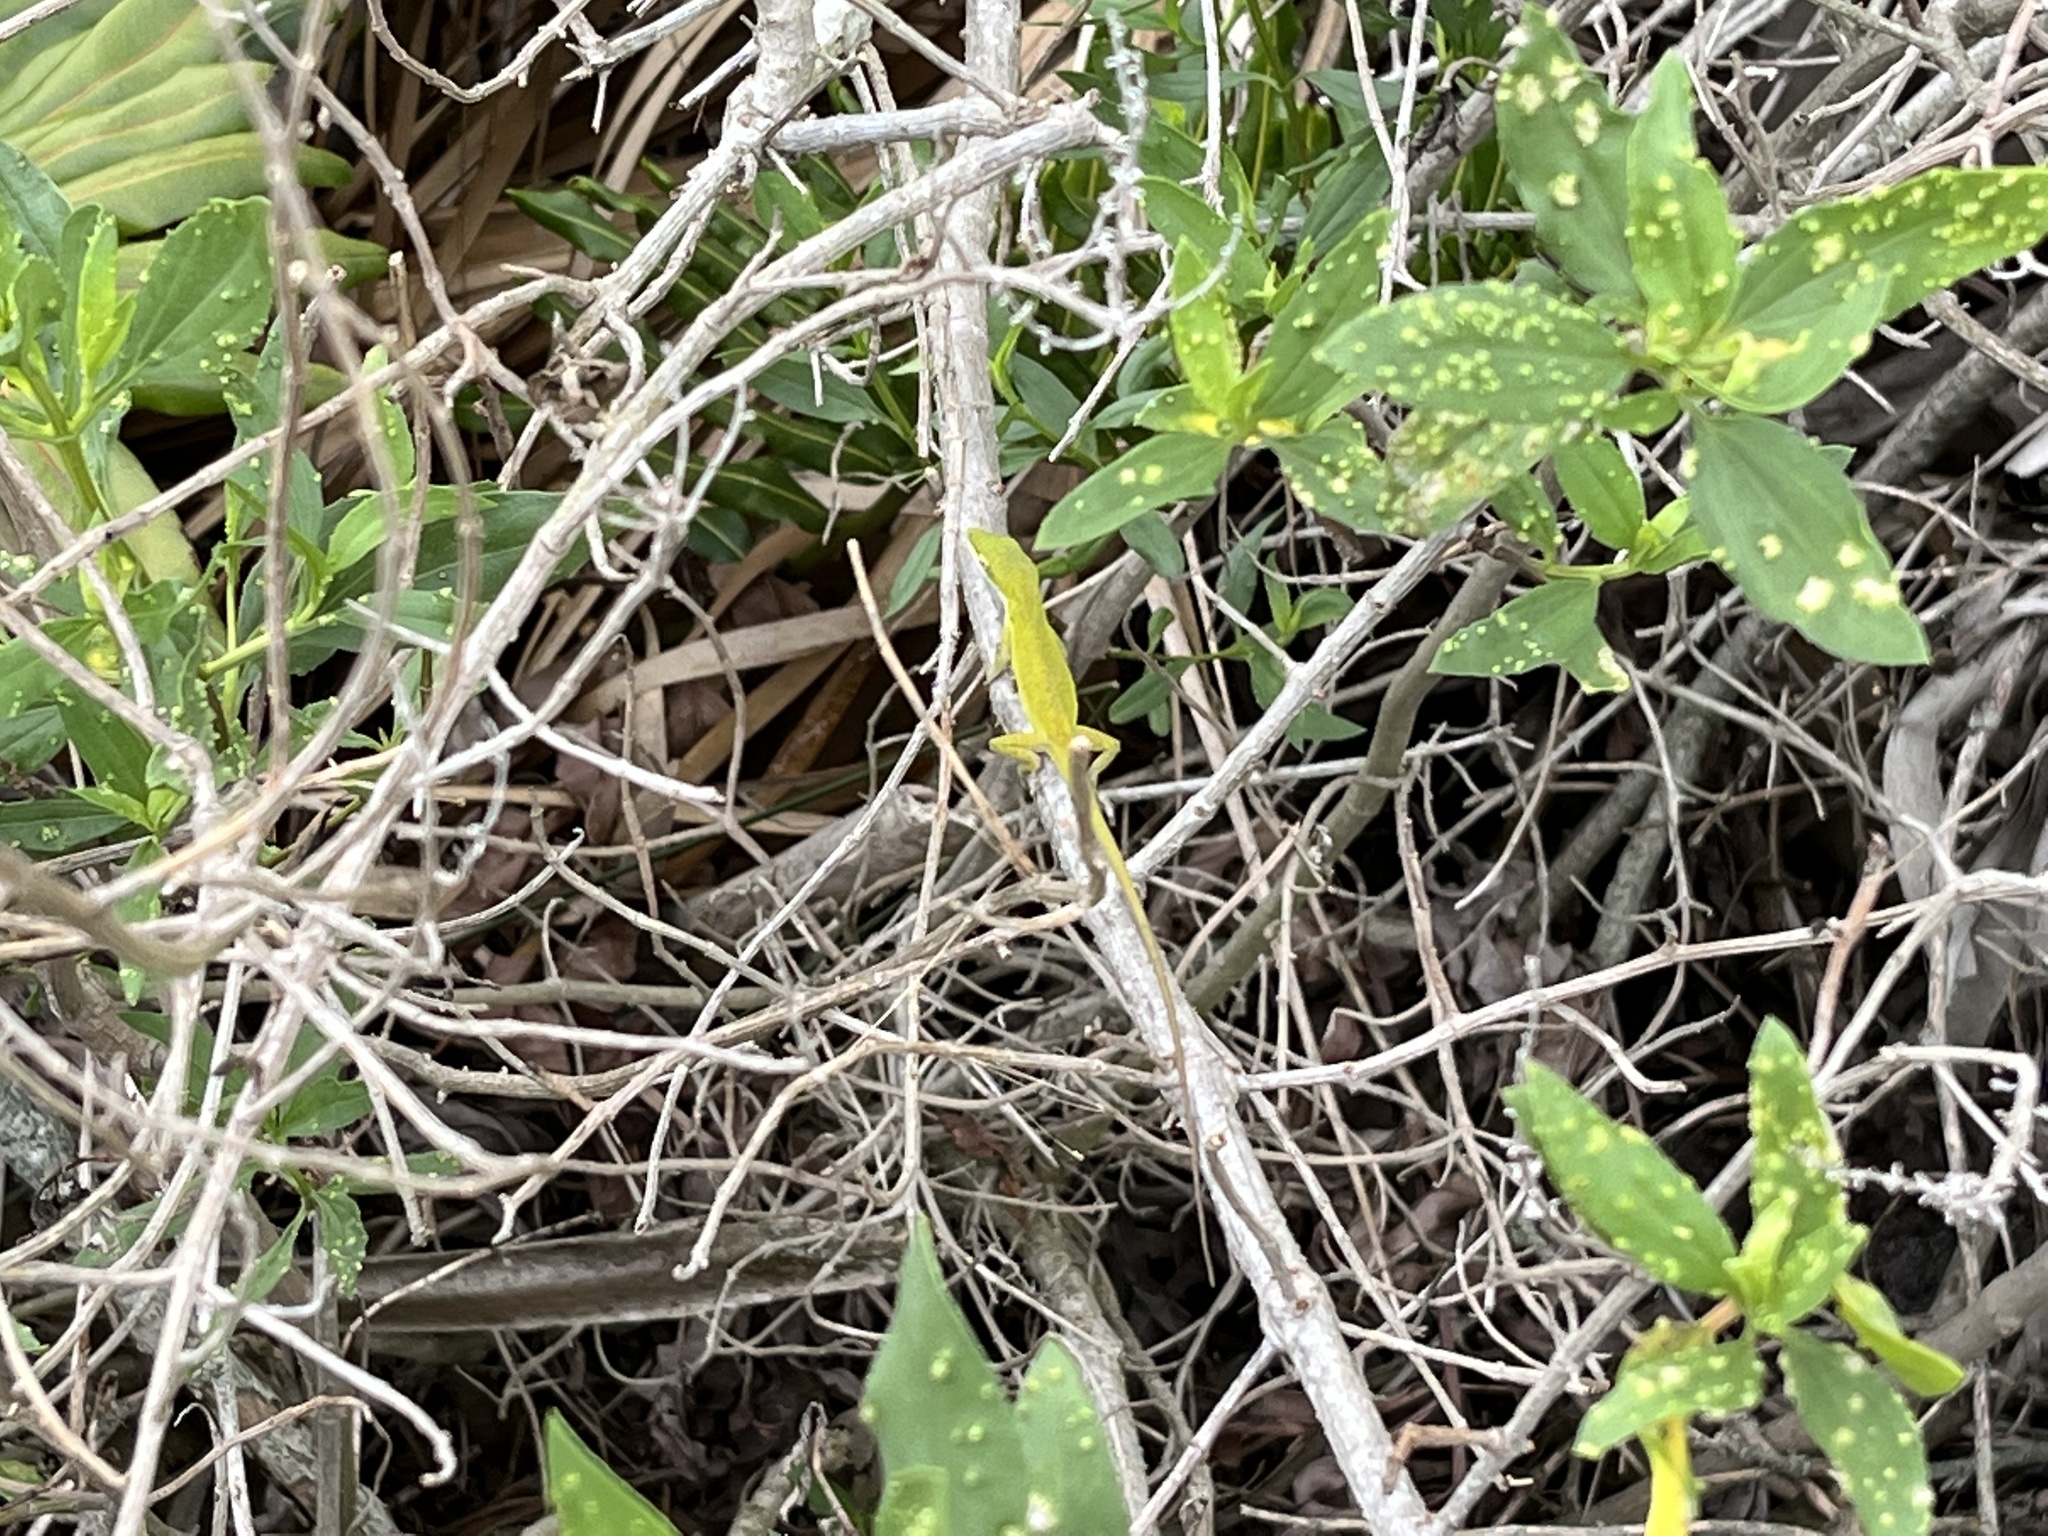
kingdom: Animalia
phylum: Chordata
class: Squamata
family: Dactyloidae
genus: Anolis
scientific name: Anolis carolinensis
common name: Green anole
